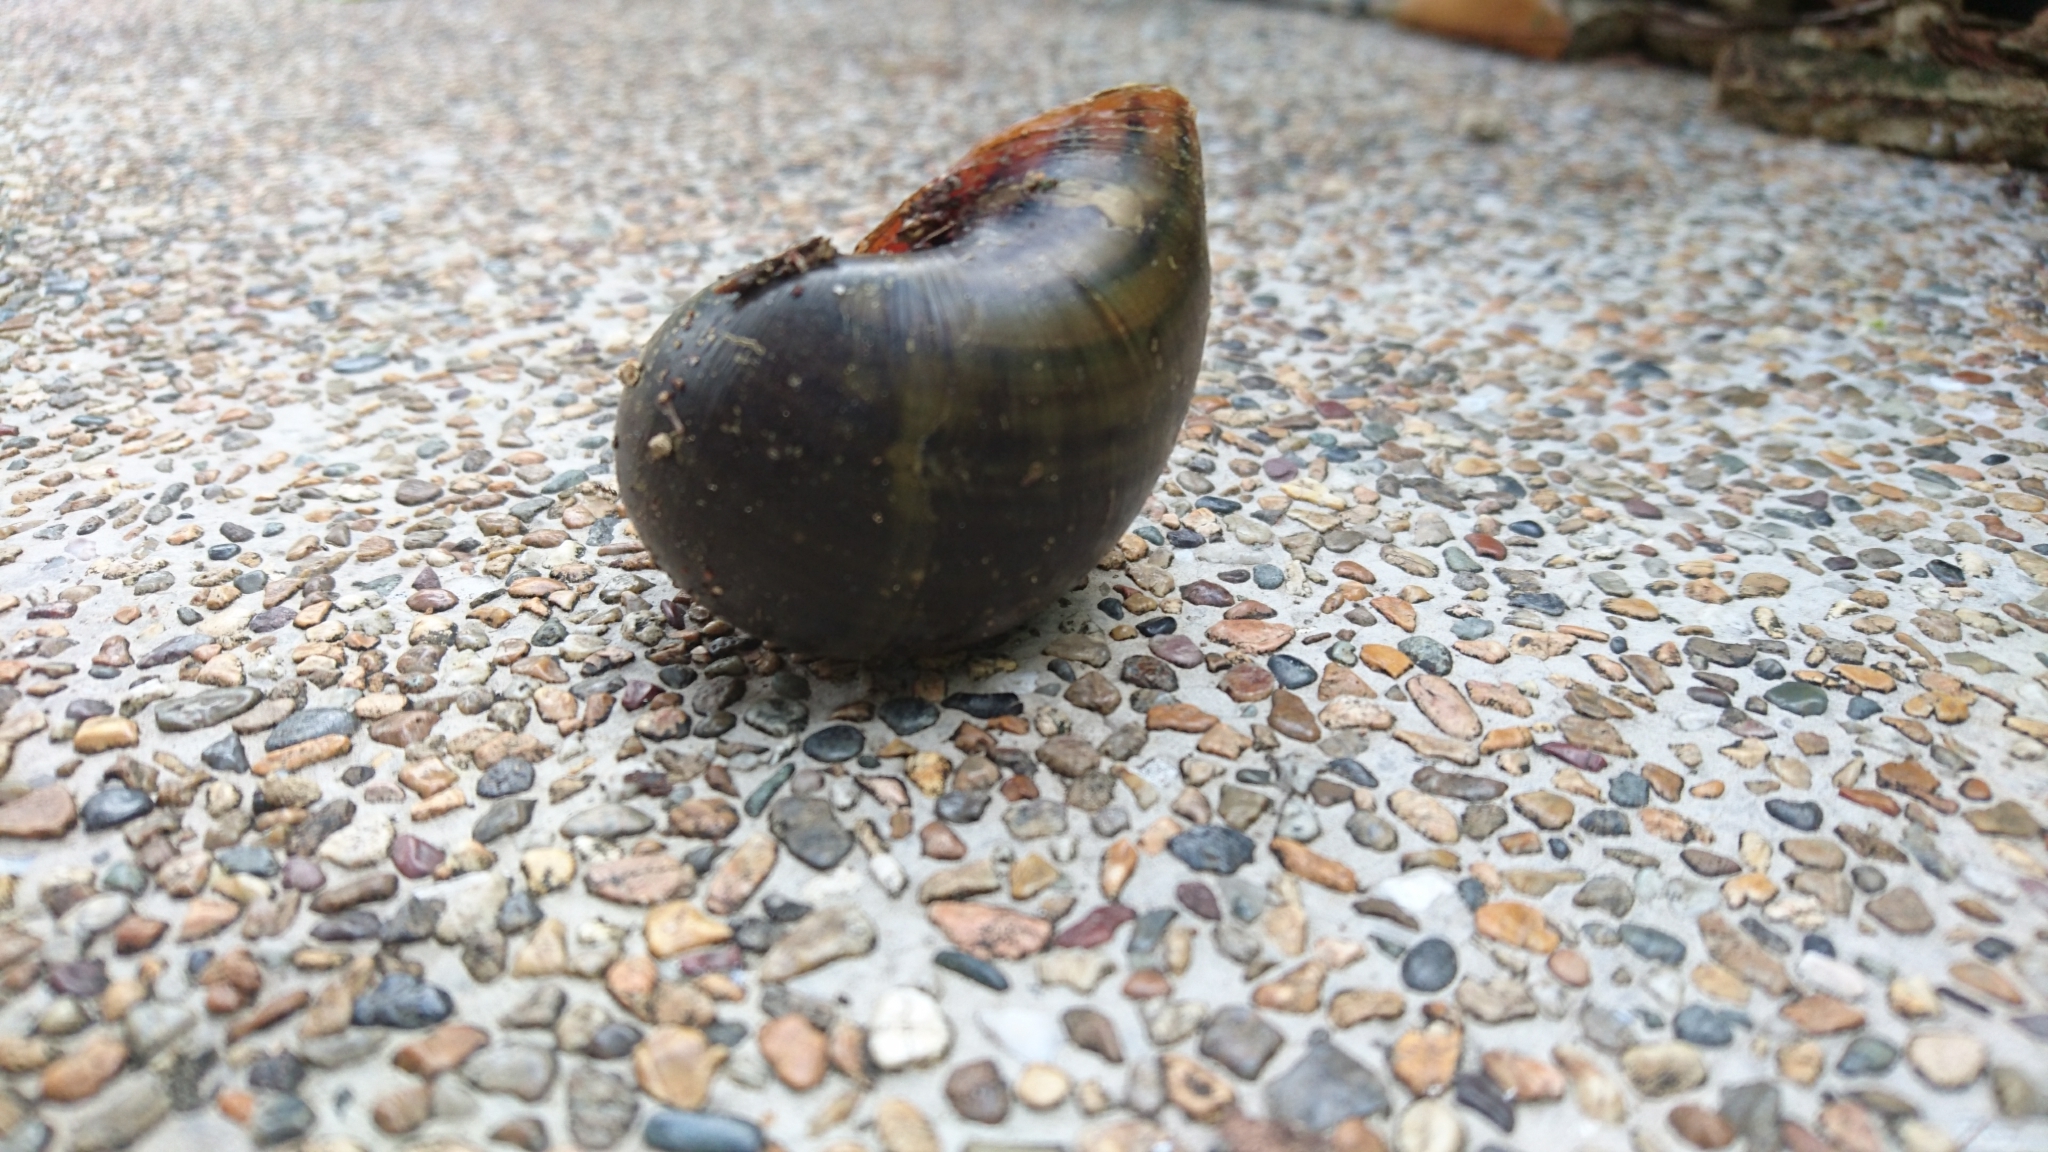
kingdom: Animalia
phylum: Mollusca
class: Gastropoda
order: Architaenioglossa
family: Ampullariidae
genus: Pomacea
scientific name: Pomacea maculata
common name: Giant applesnail
